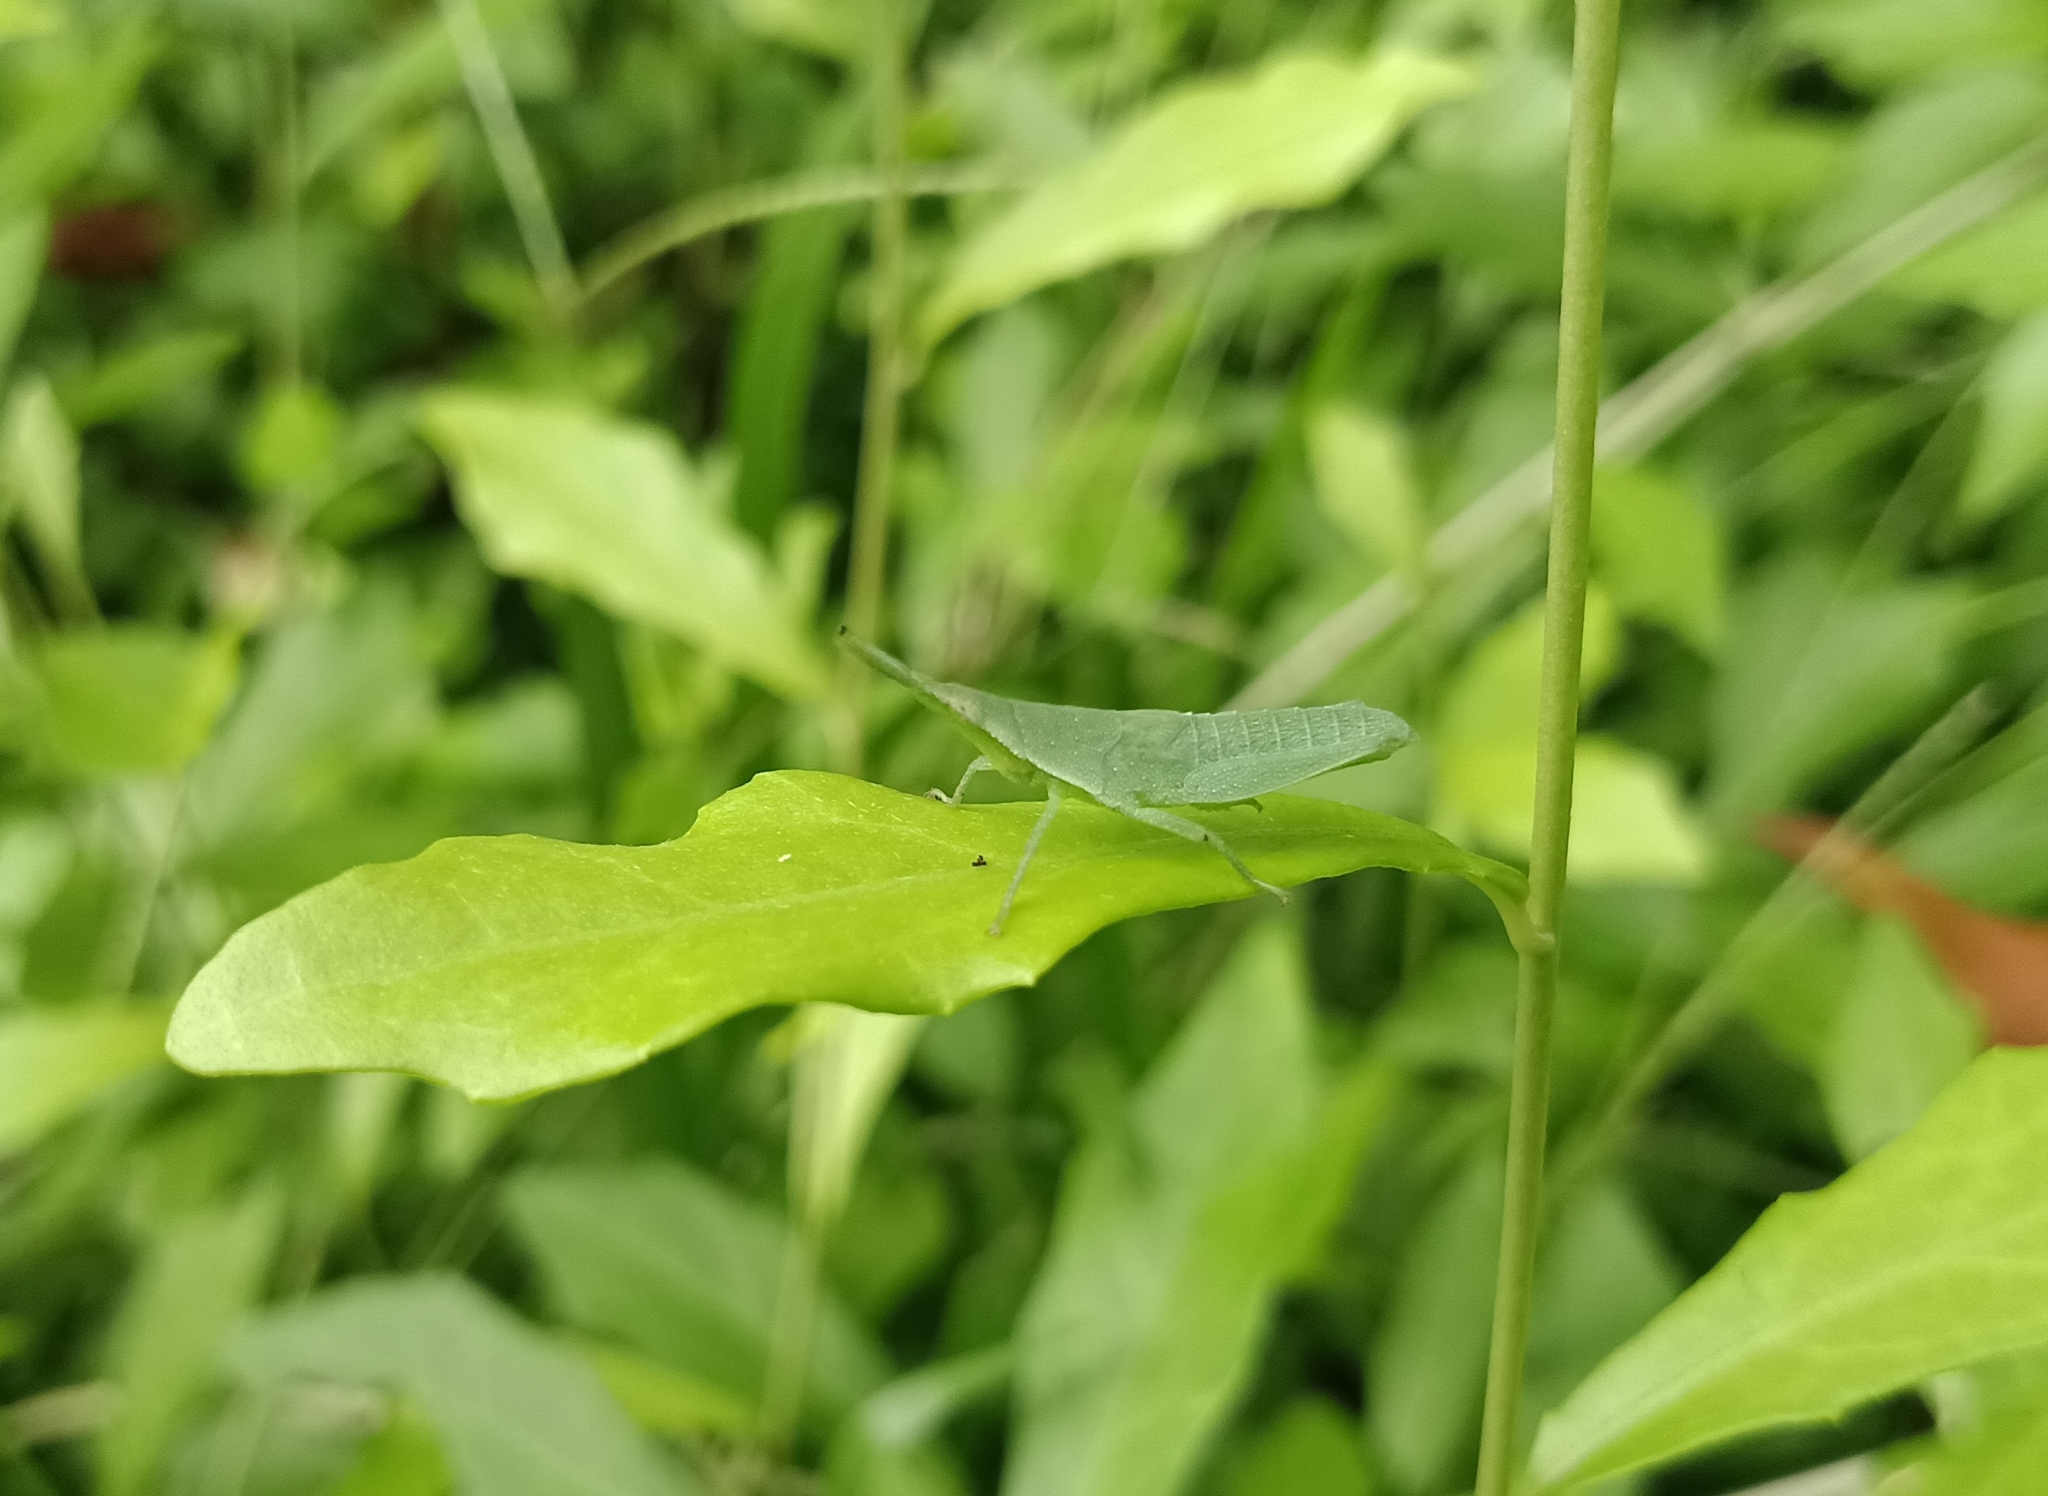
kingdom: Animalia
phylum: Arthropoda
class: Insecta
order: Orthoptera
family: Pyrgomorphidae
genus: Atractomorpha
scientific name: Atractomorpha lata
